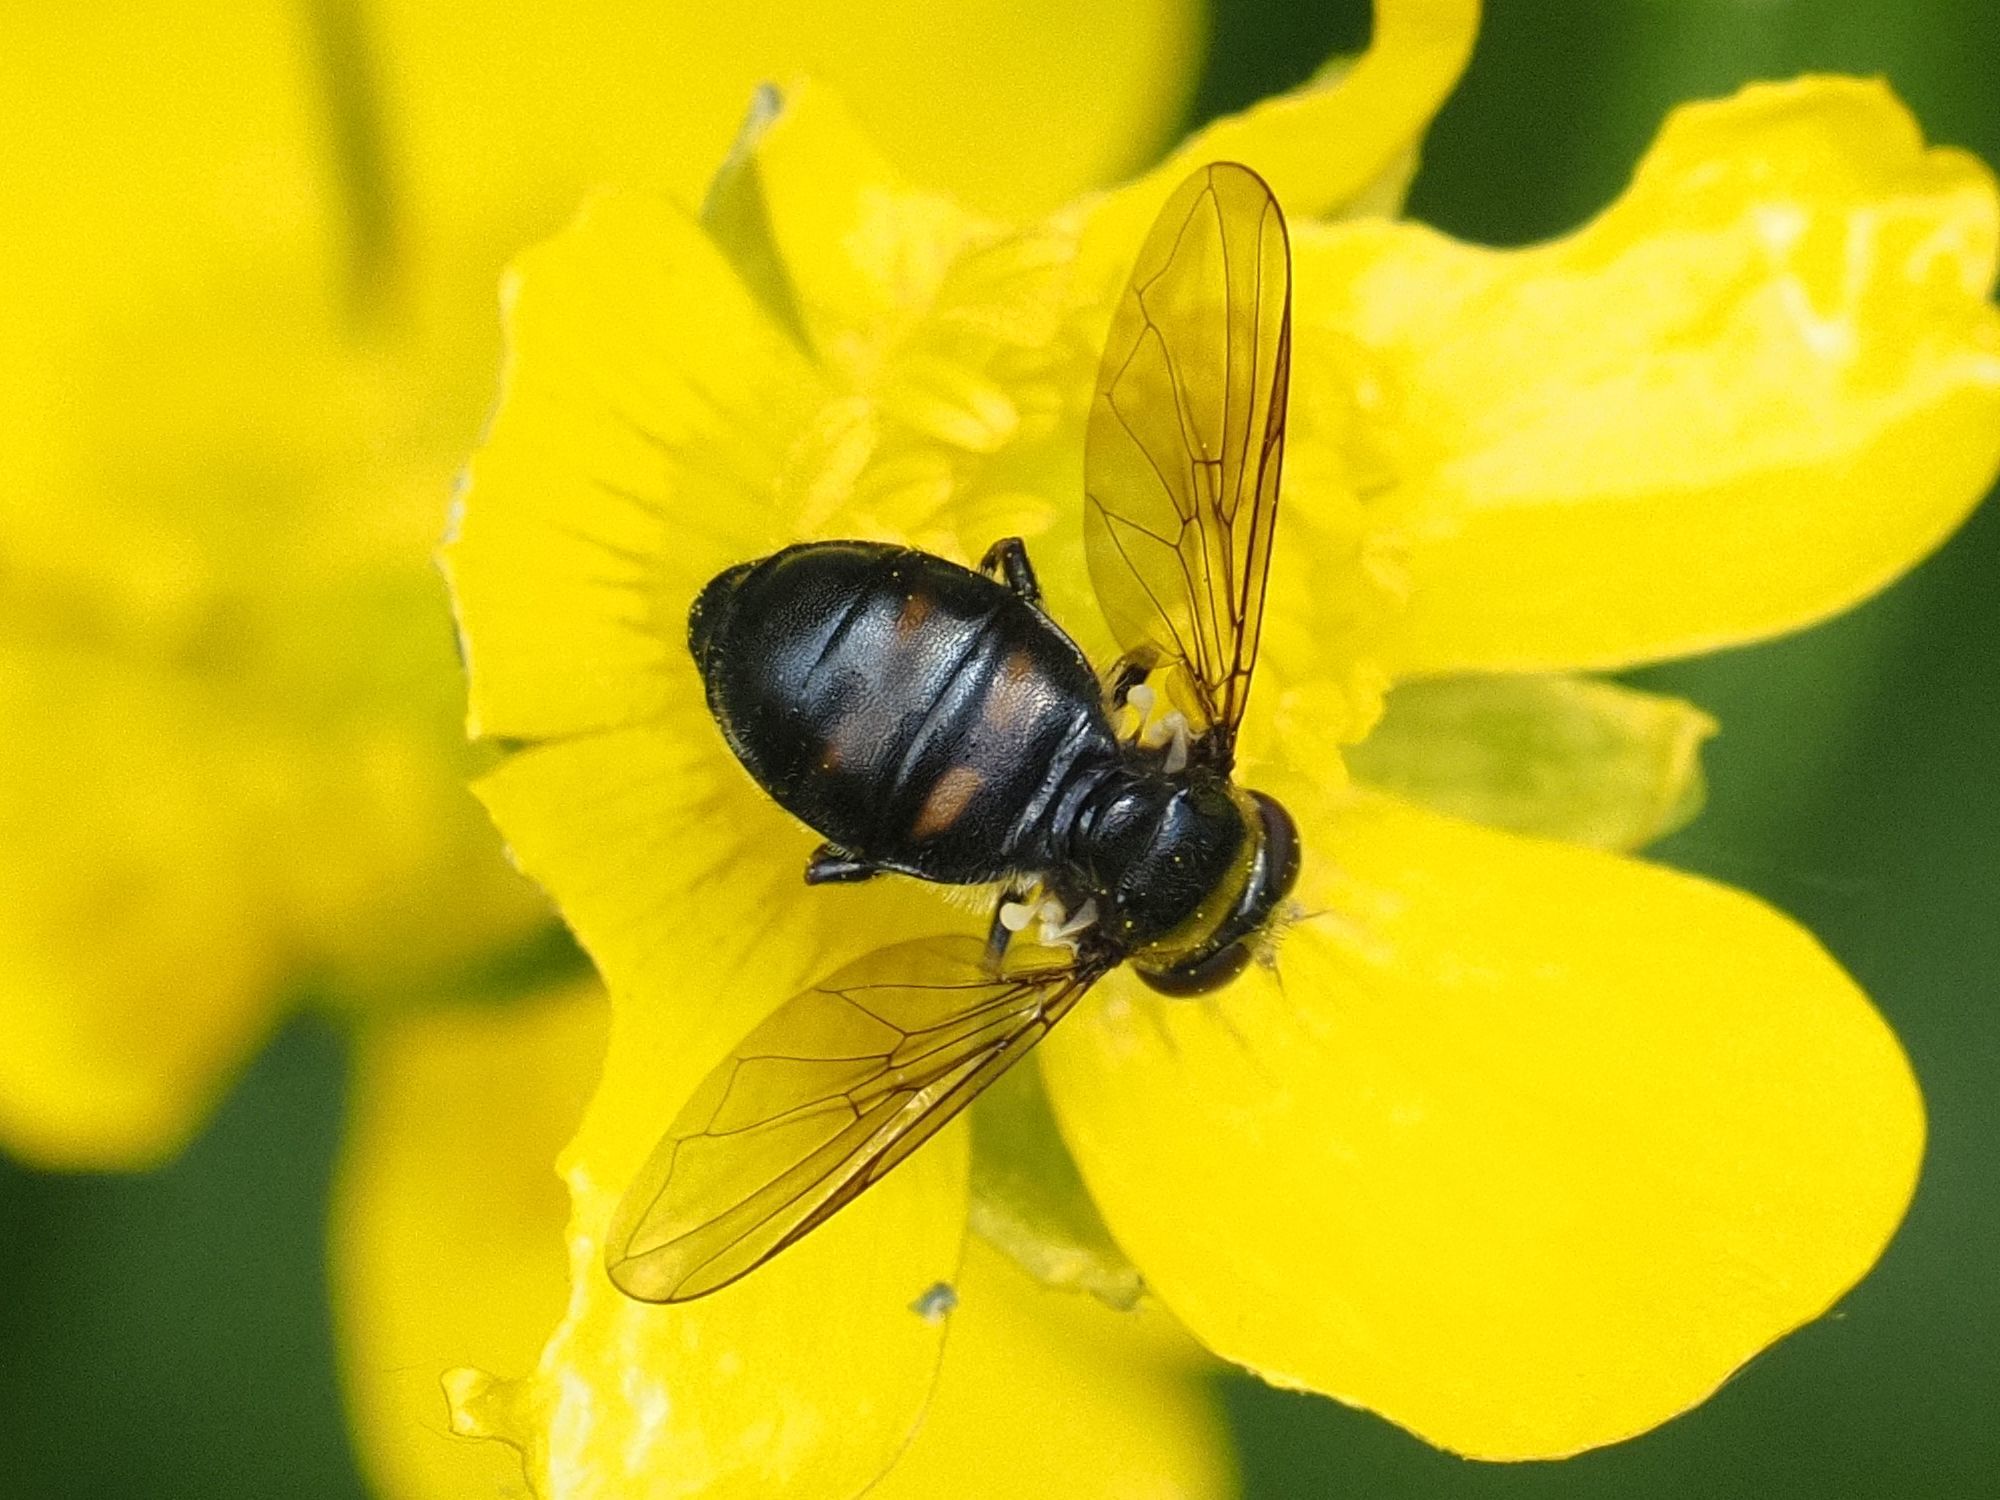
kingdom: Animalia
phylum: Arthropoda
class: Insecta
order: Diptera
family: Syrphidae
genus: Pipiza
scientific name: Pipiza quadrimaculata
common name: Four-spotted pipiza
